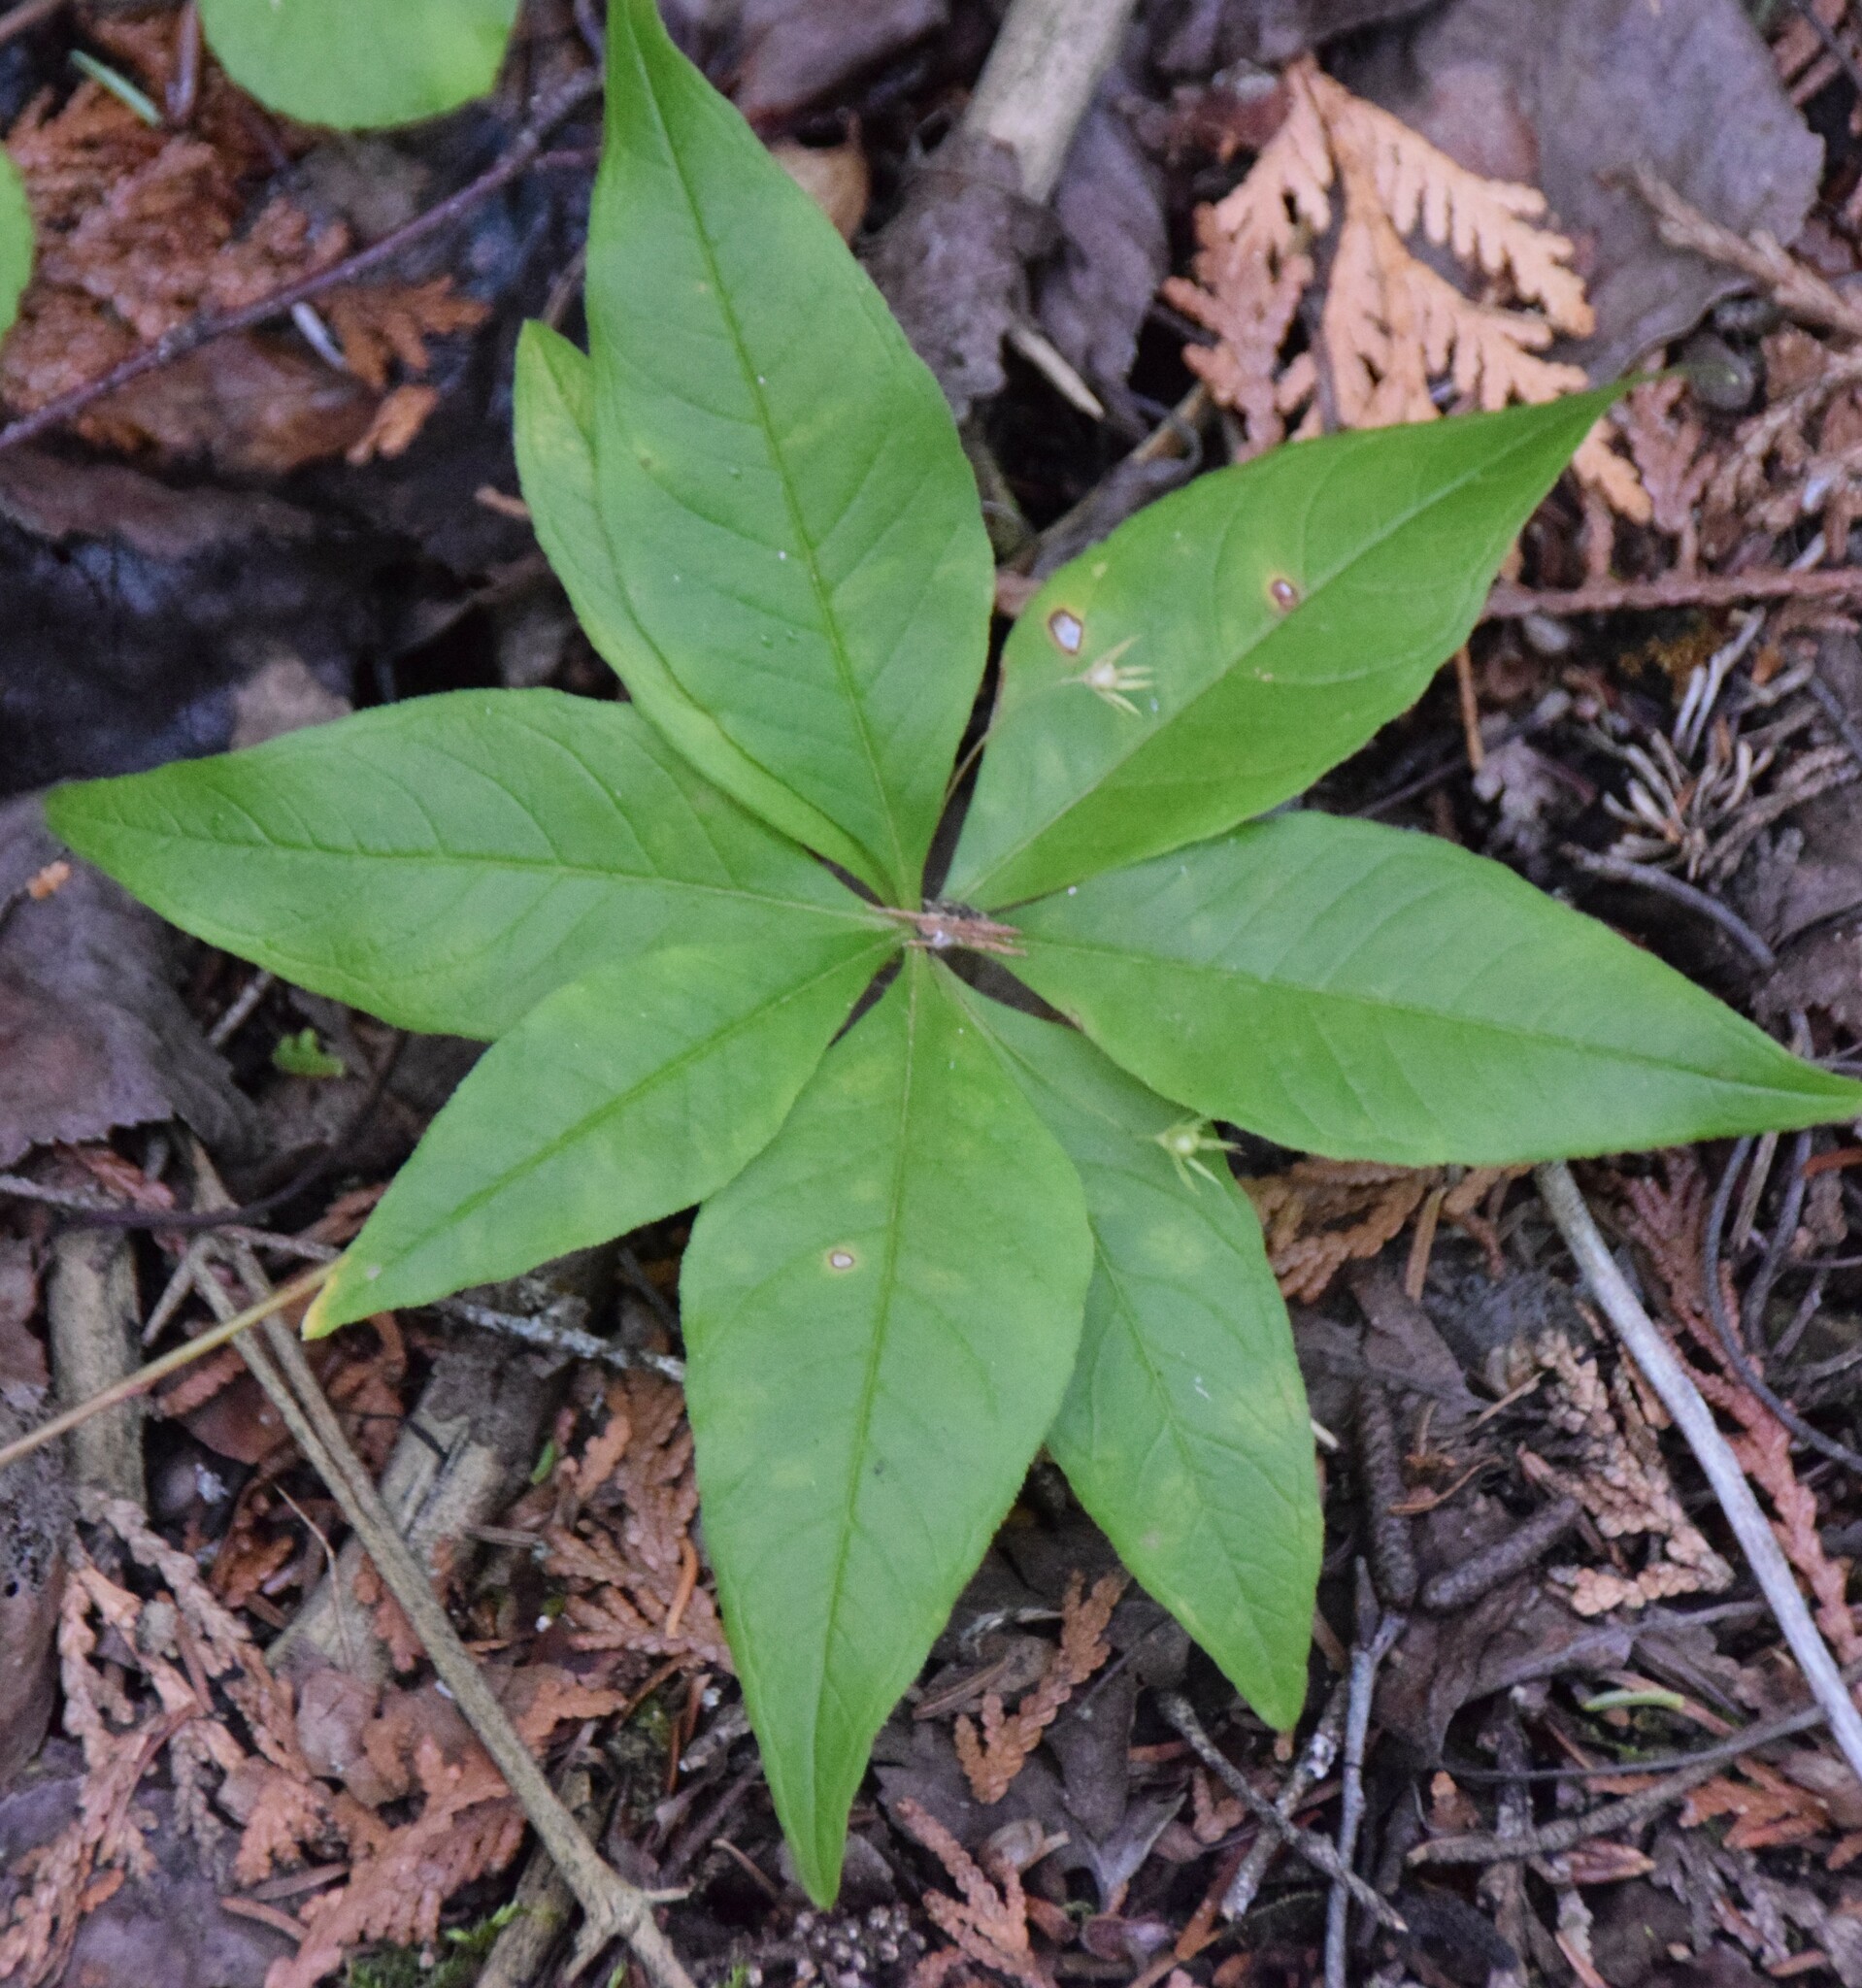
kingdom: Plantae
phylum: Tracheophyta
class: Magnoliopsida
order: Ericales
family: Primulaceae
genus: Lysimachia
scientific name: Lysimachia borealis
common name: American starflower
